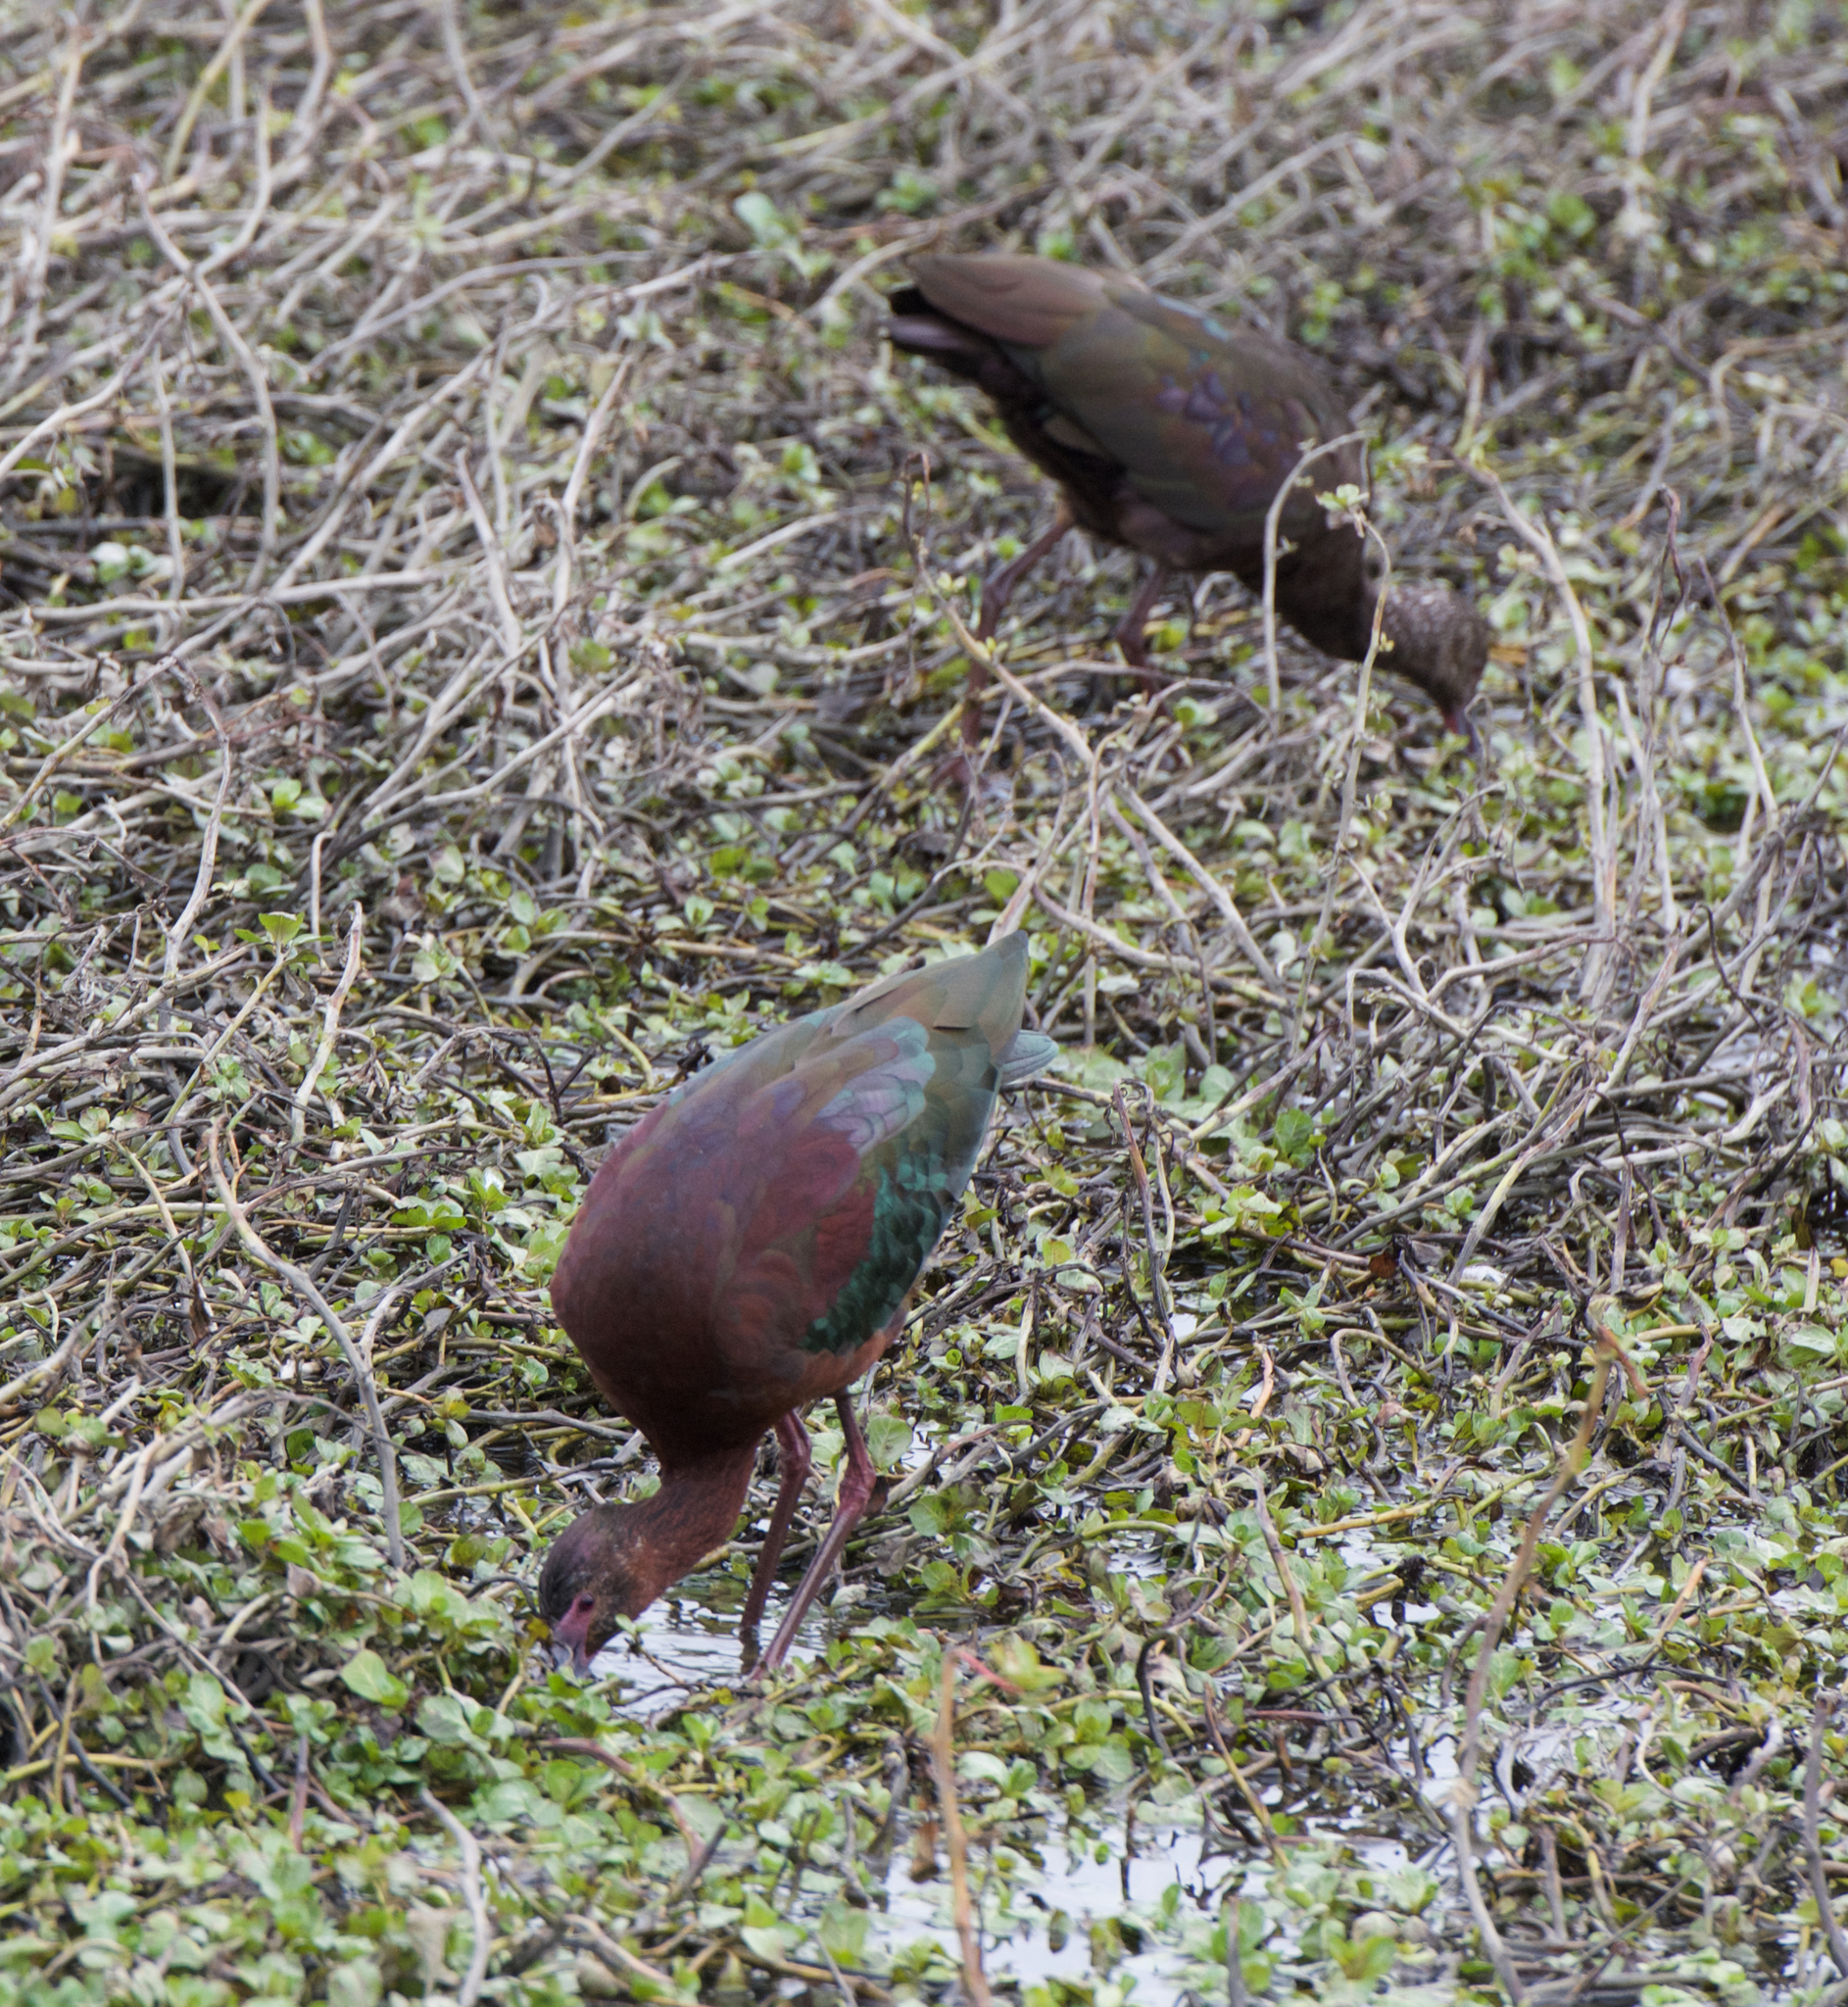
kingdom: Animalia
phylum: Chordata
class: Aves
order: Pelecaniformes
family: Threskiornithidae
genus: Plegadis
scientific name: Plegadis chihi
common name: White-faced ibis
